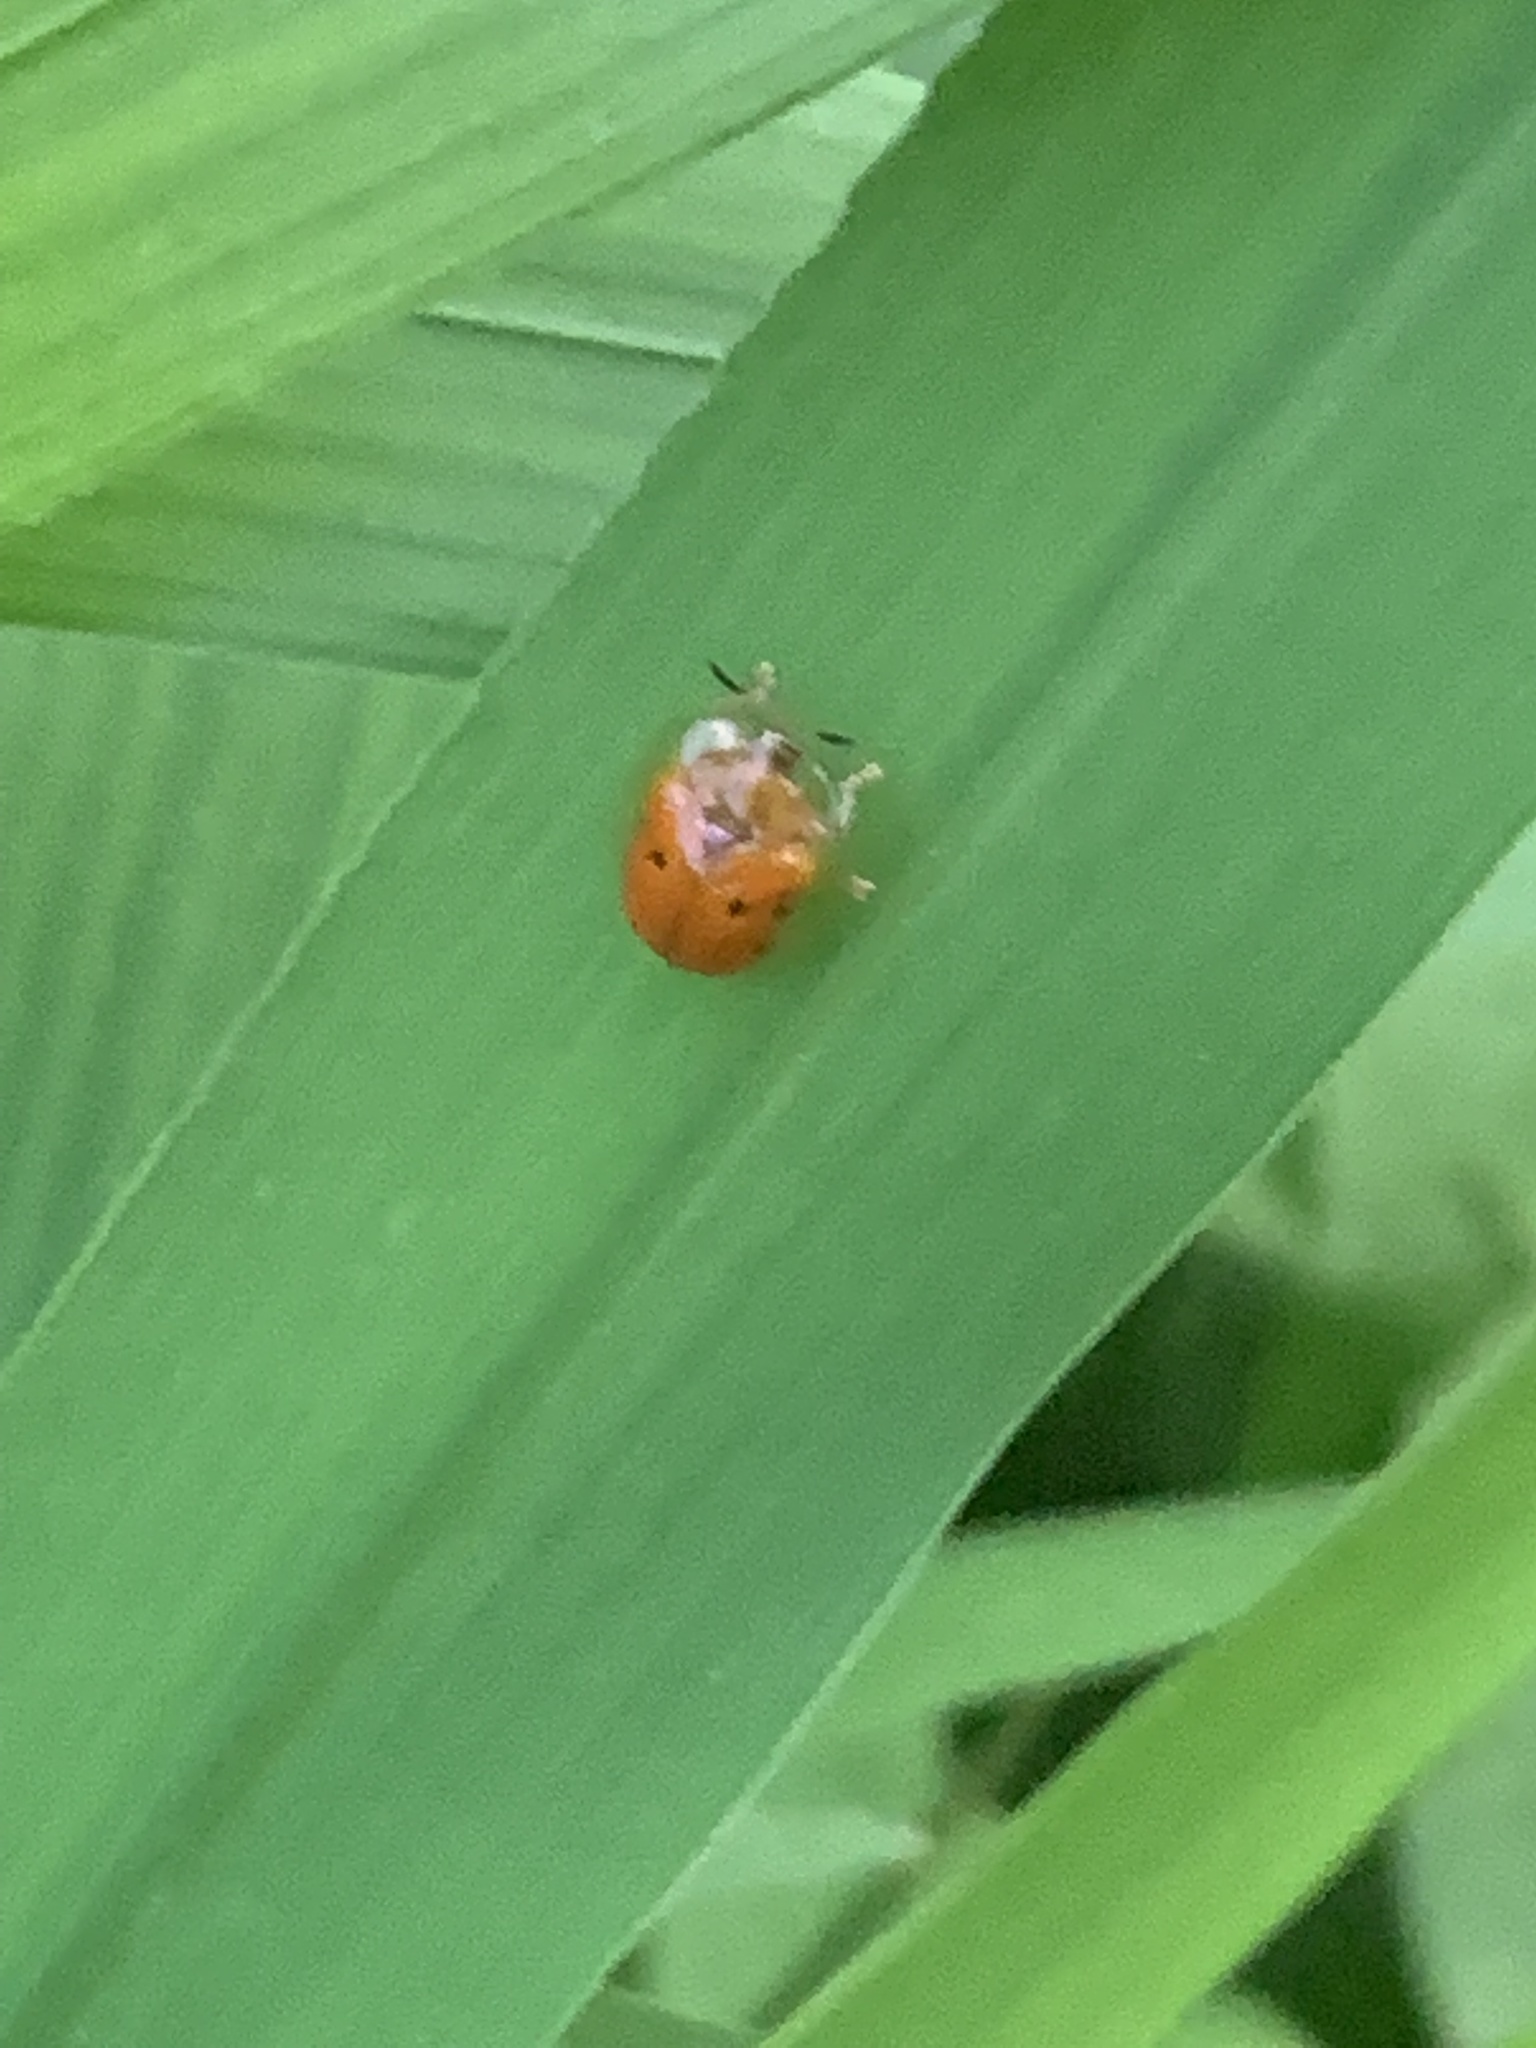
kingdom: Animalia
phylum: Arthropoda
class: Insecta
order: Coleoptera
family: Chrysomelidae
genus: Charidotella
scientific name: Charidotella sexpunctata
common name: Golden tortoise beetle
